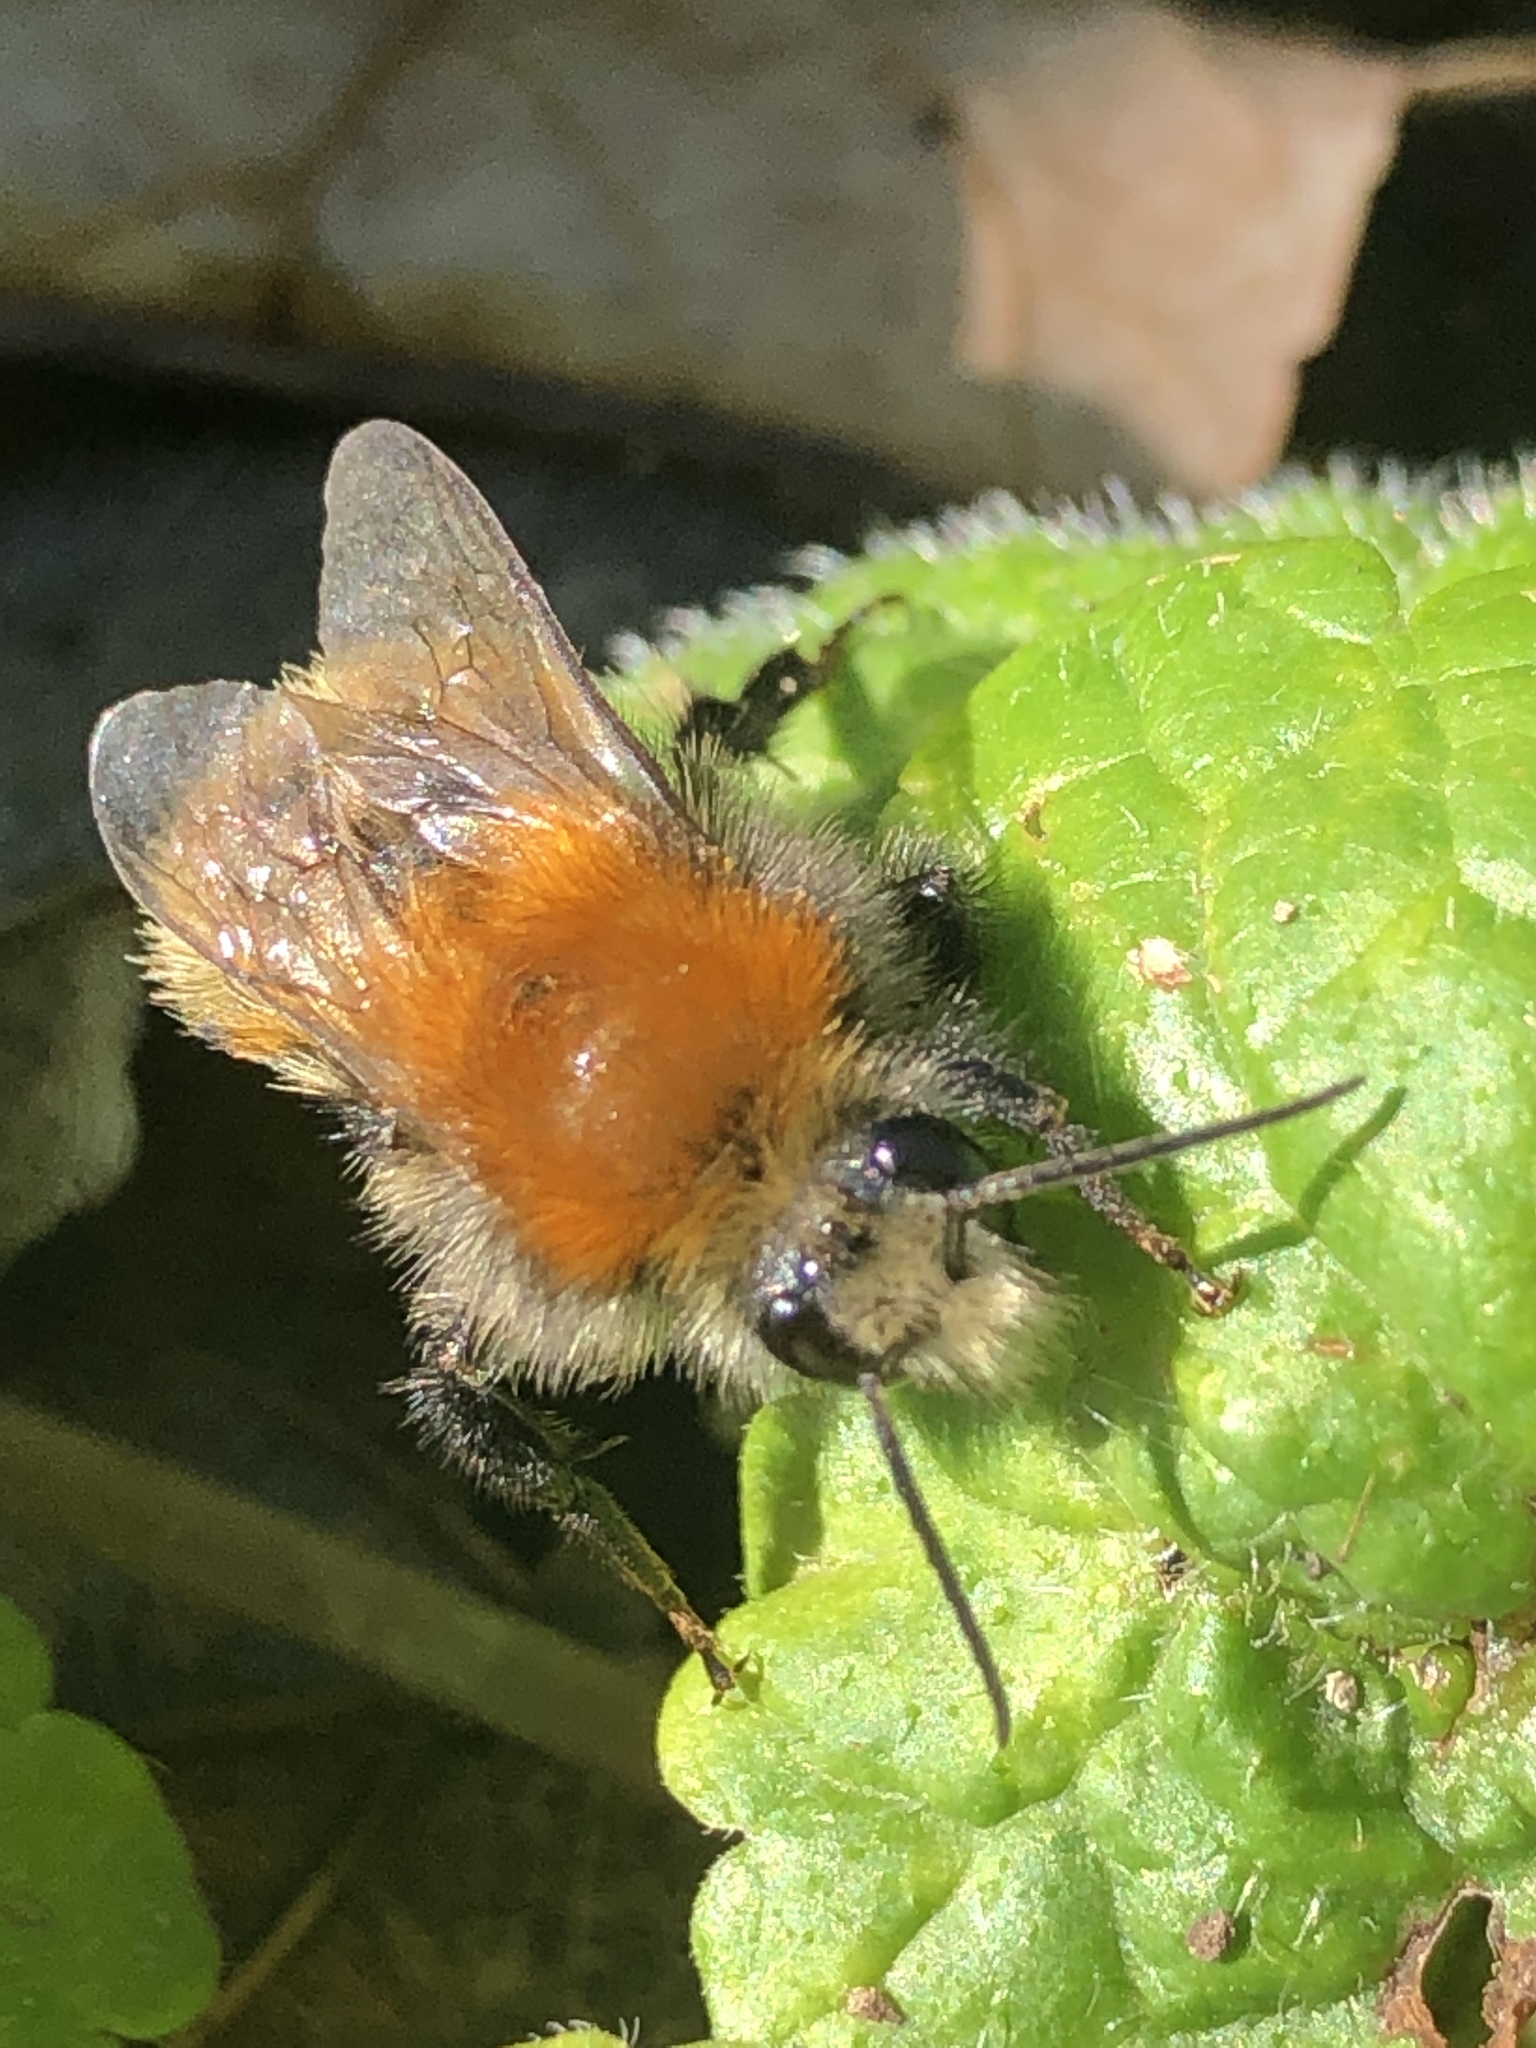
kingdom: Animalia
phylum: Arthropoda
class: Insecta
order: Hymenoptera
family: Apidae
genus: Bombus
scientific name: Bombus humilis
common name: Brown-banded carder-bee
